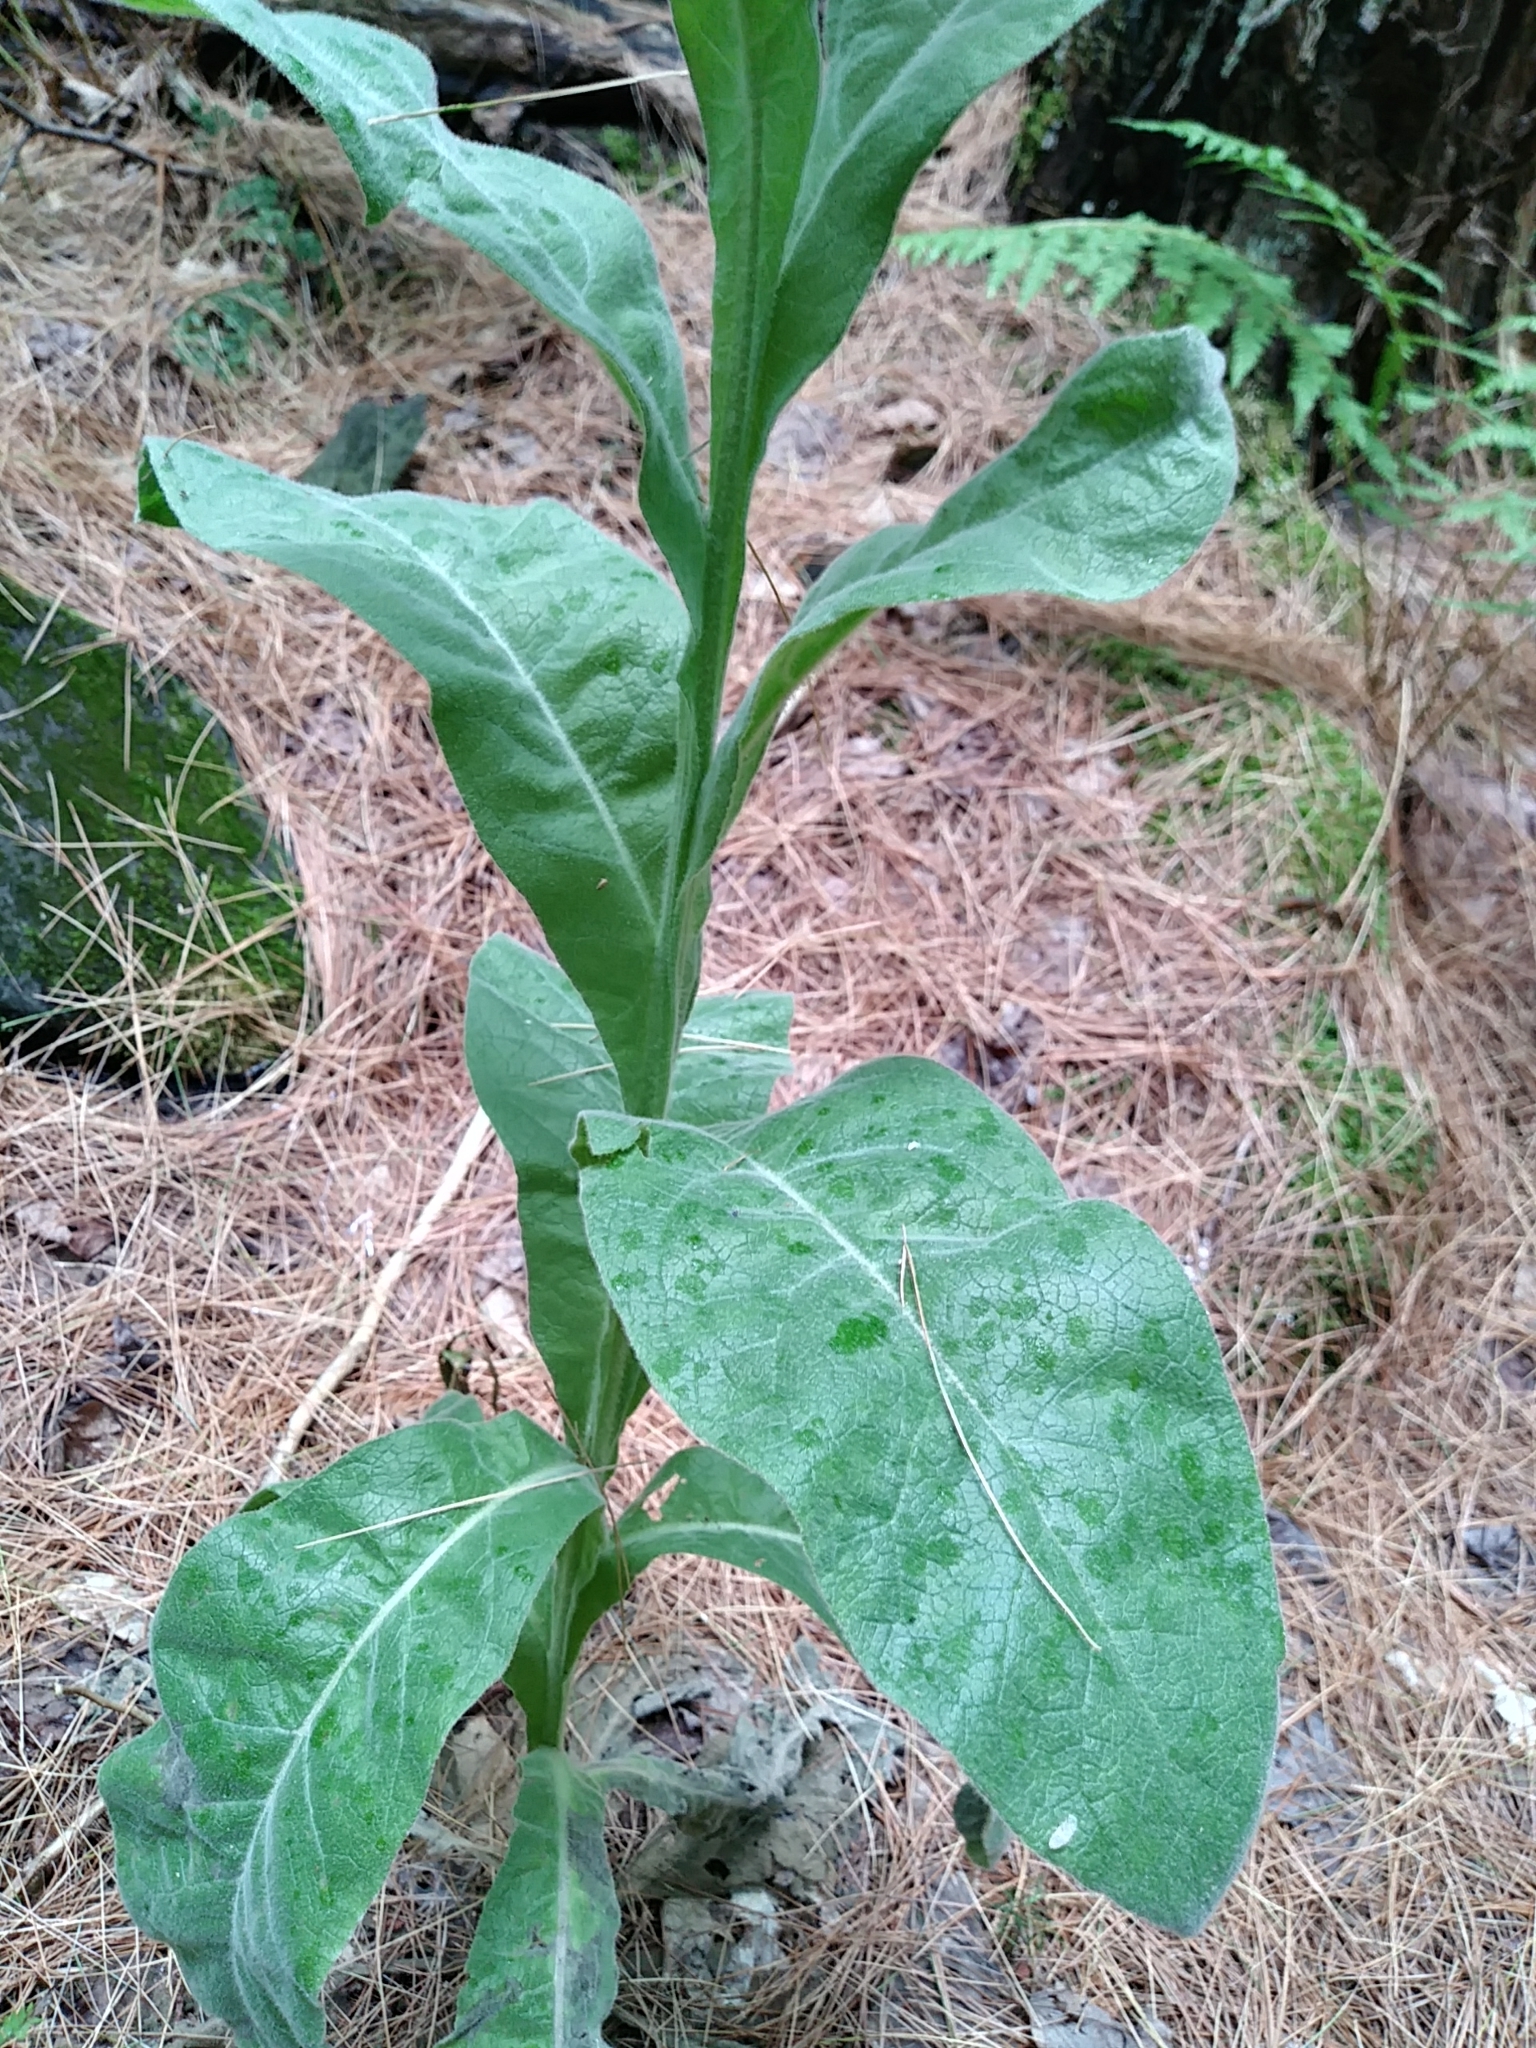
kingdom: Plantae
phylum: Tracheophyta
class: Magnoliopsida
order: Lamiales
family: Scrophulariaceae
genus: Verbascum
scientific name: Verbascum thapsus
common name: Common mullein
